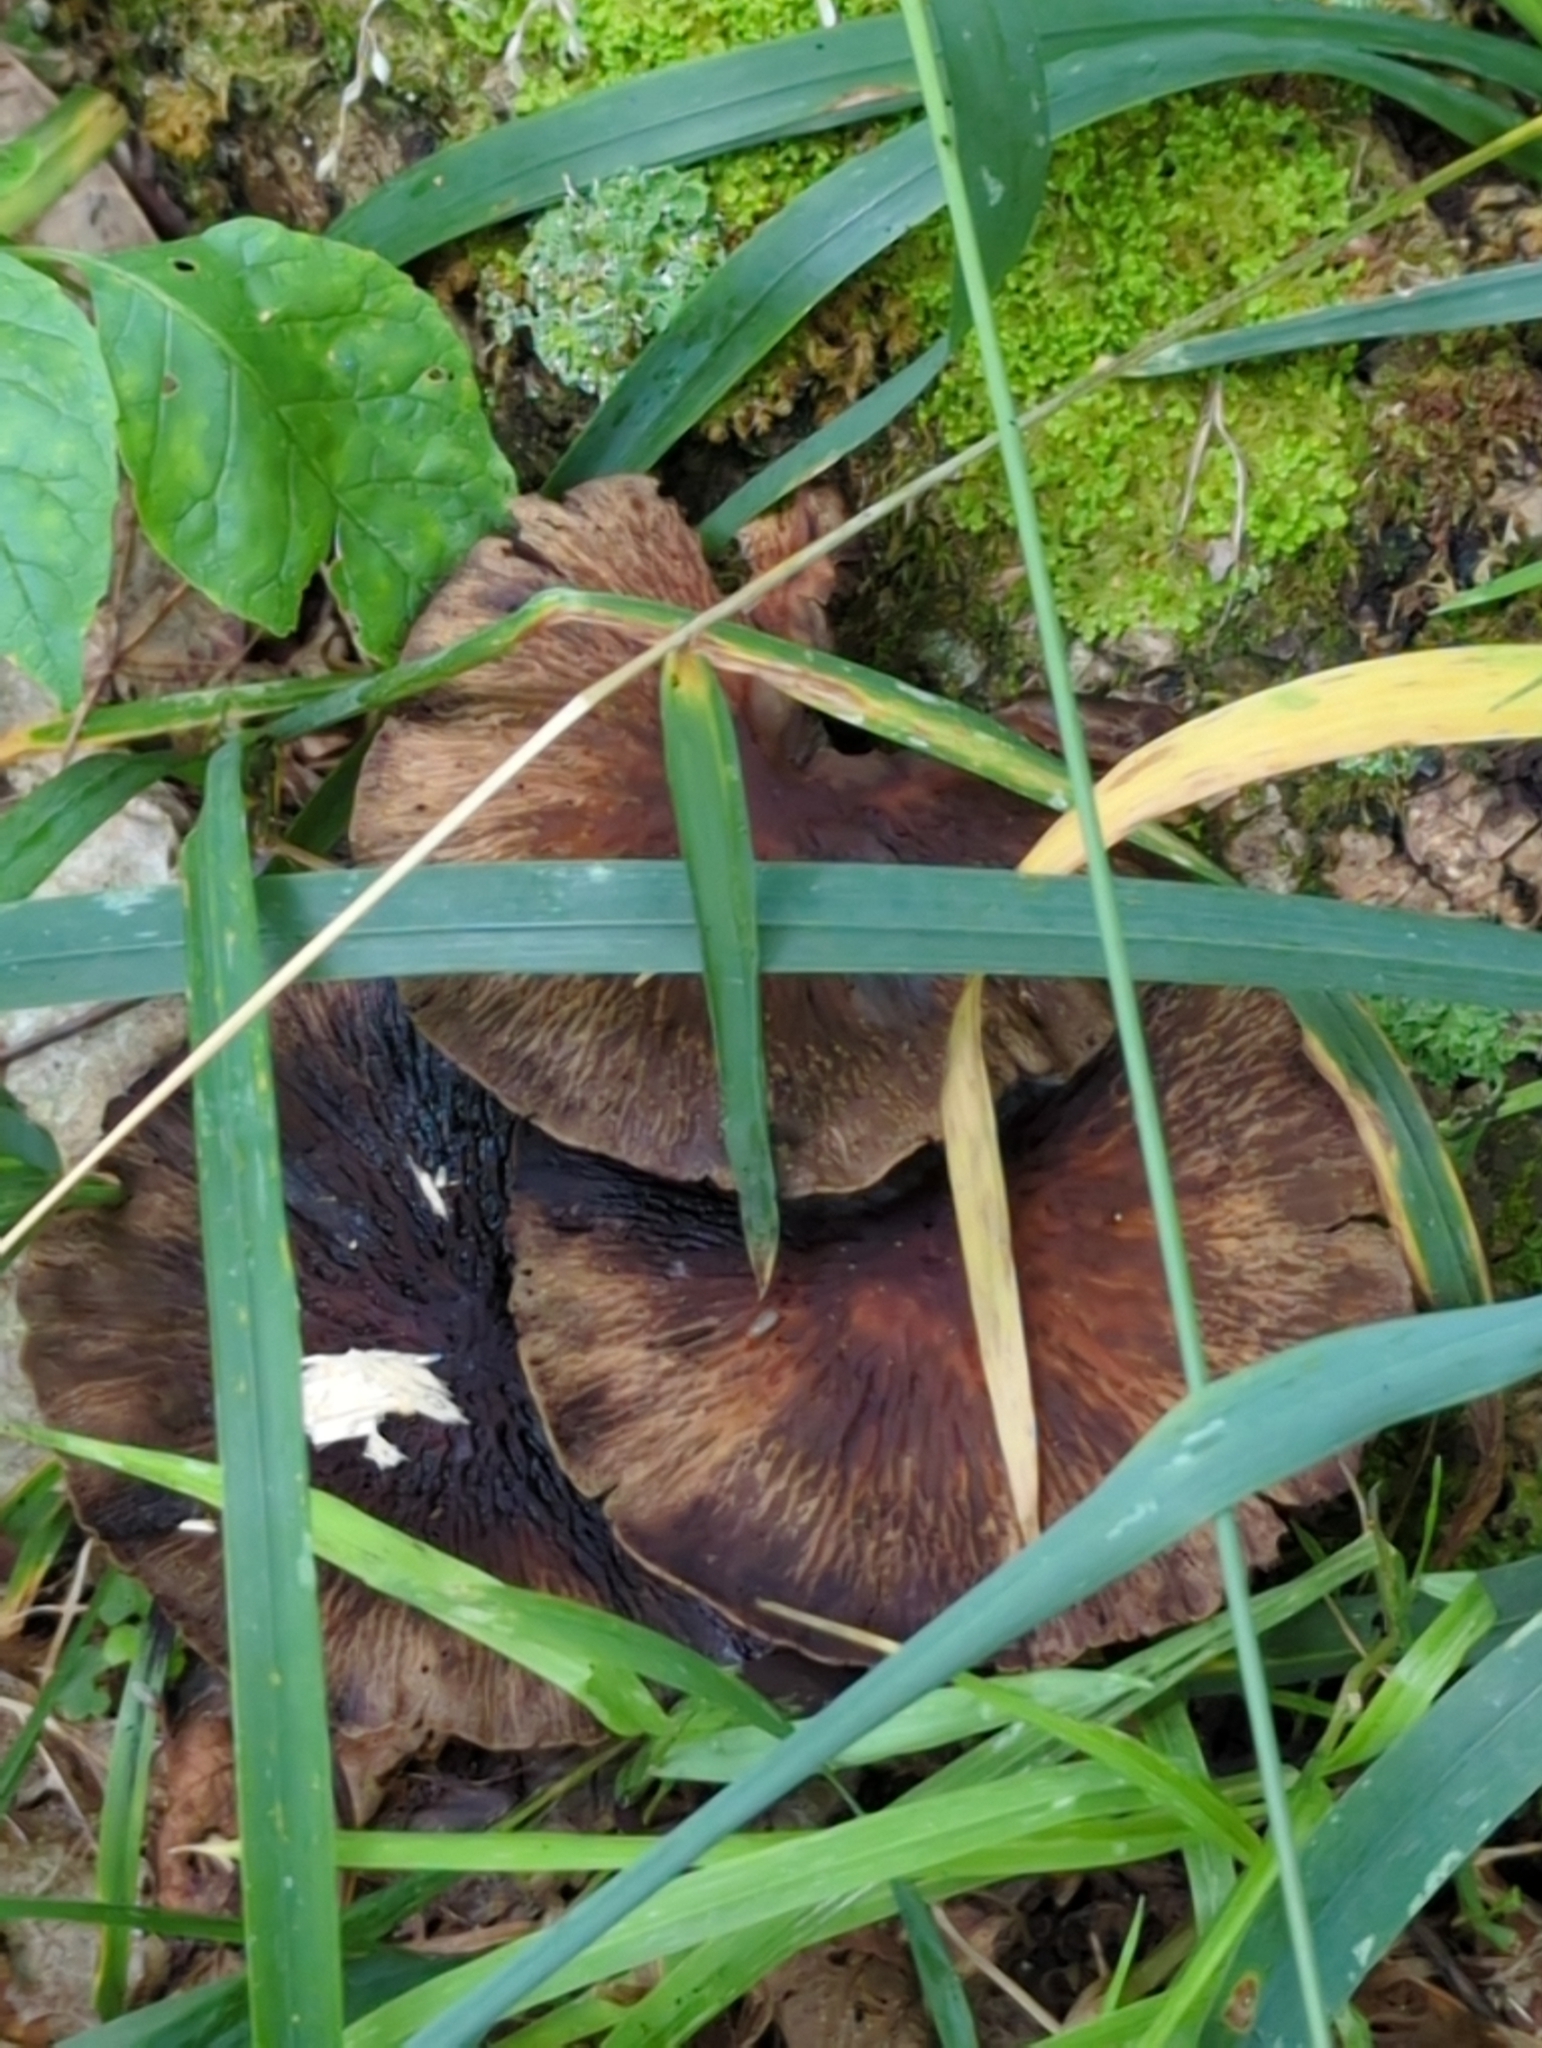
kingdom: Fungi
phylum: Basidiomycota
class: Agaricomycetes
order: Agaricales
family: Psathyrellaceae
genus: Typhrasa
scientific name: Typhrasa gossypina
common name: Wrinkled psathyrella
